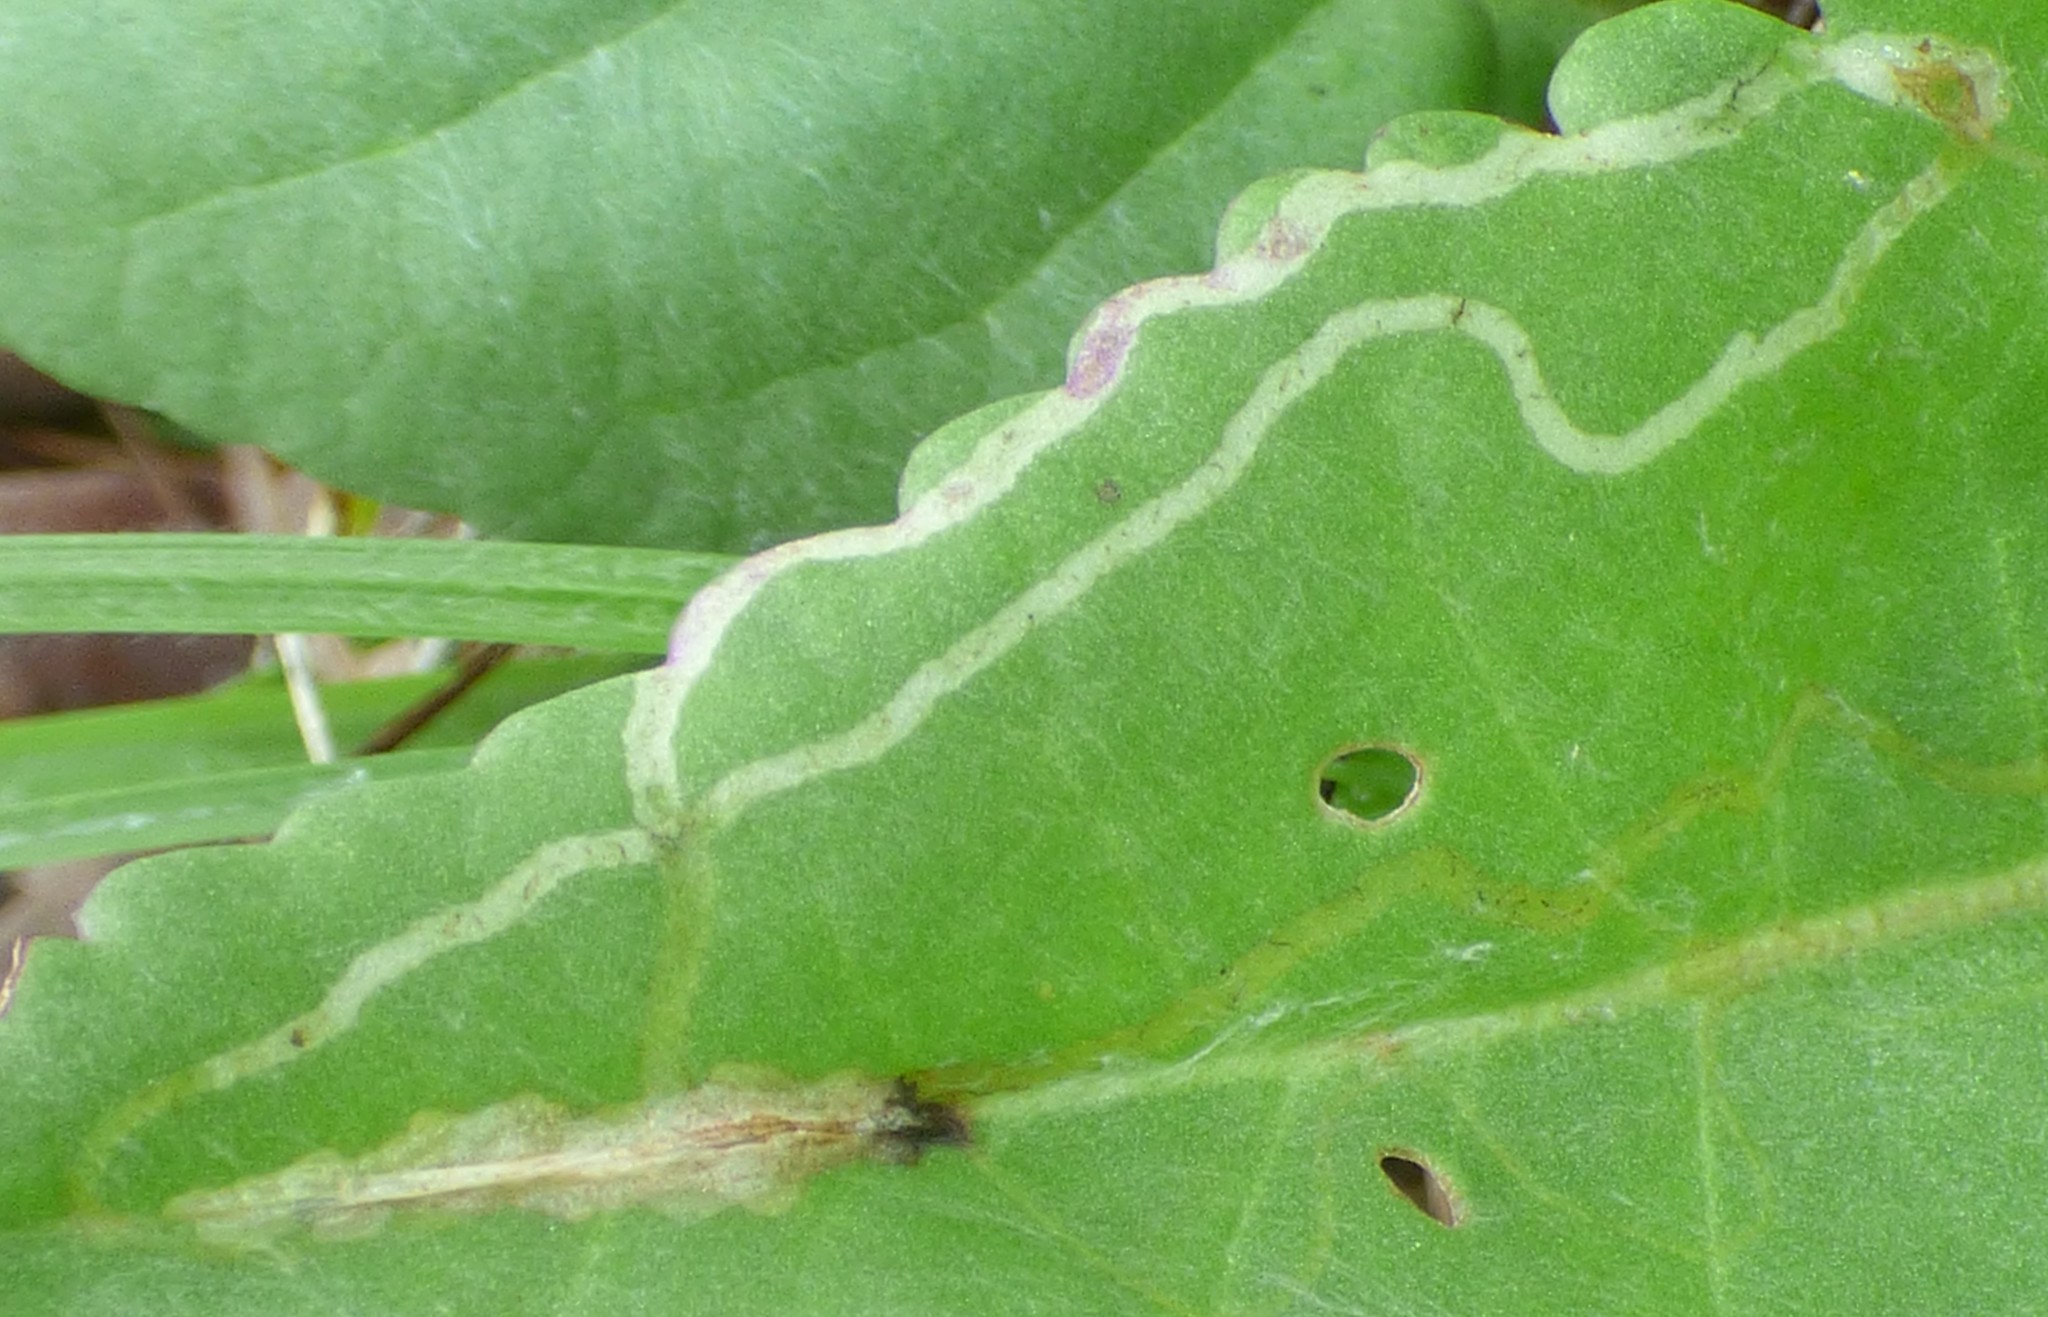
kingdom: Animalia
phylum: Arthropoda
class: Insecta
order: Lepidoptera
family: Gracillariidae
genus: Phyllocnistis
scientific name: Phyllocnistis insignis
